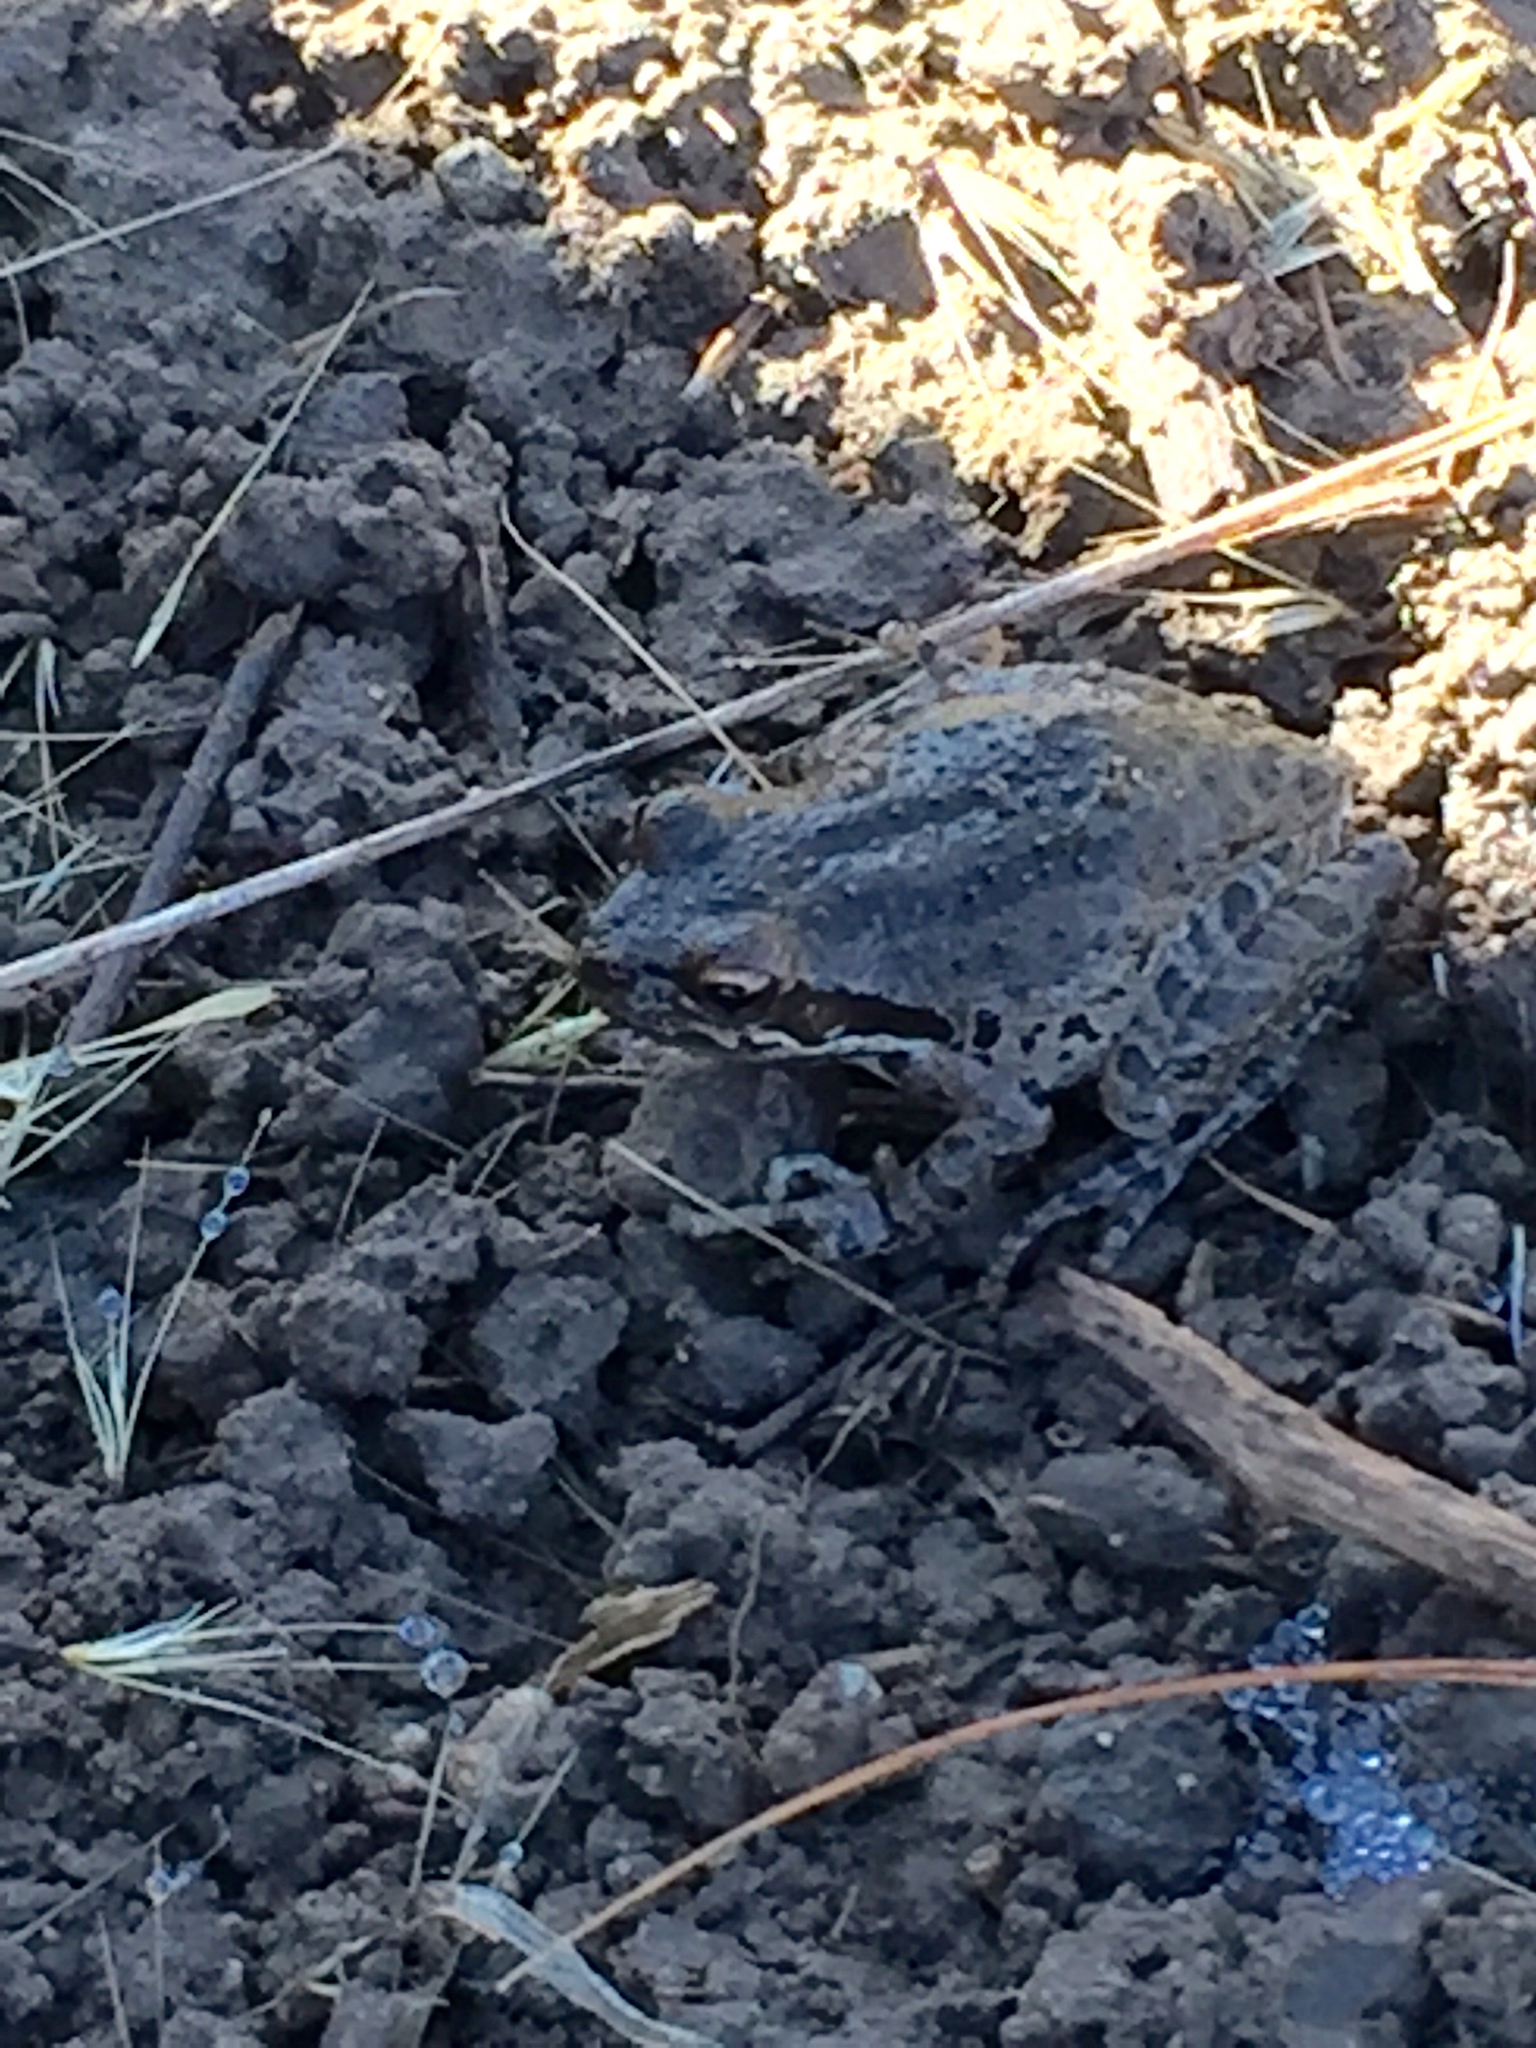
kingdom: Animalia
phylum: Chordata
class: Amphibia
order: Anura
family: Hylidae
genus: Pseudacris
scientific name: Pseudacris regilla
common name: Pacific chorus frog
